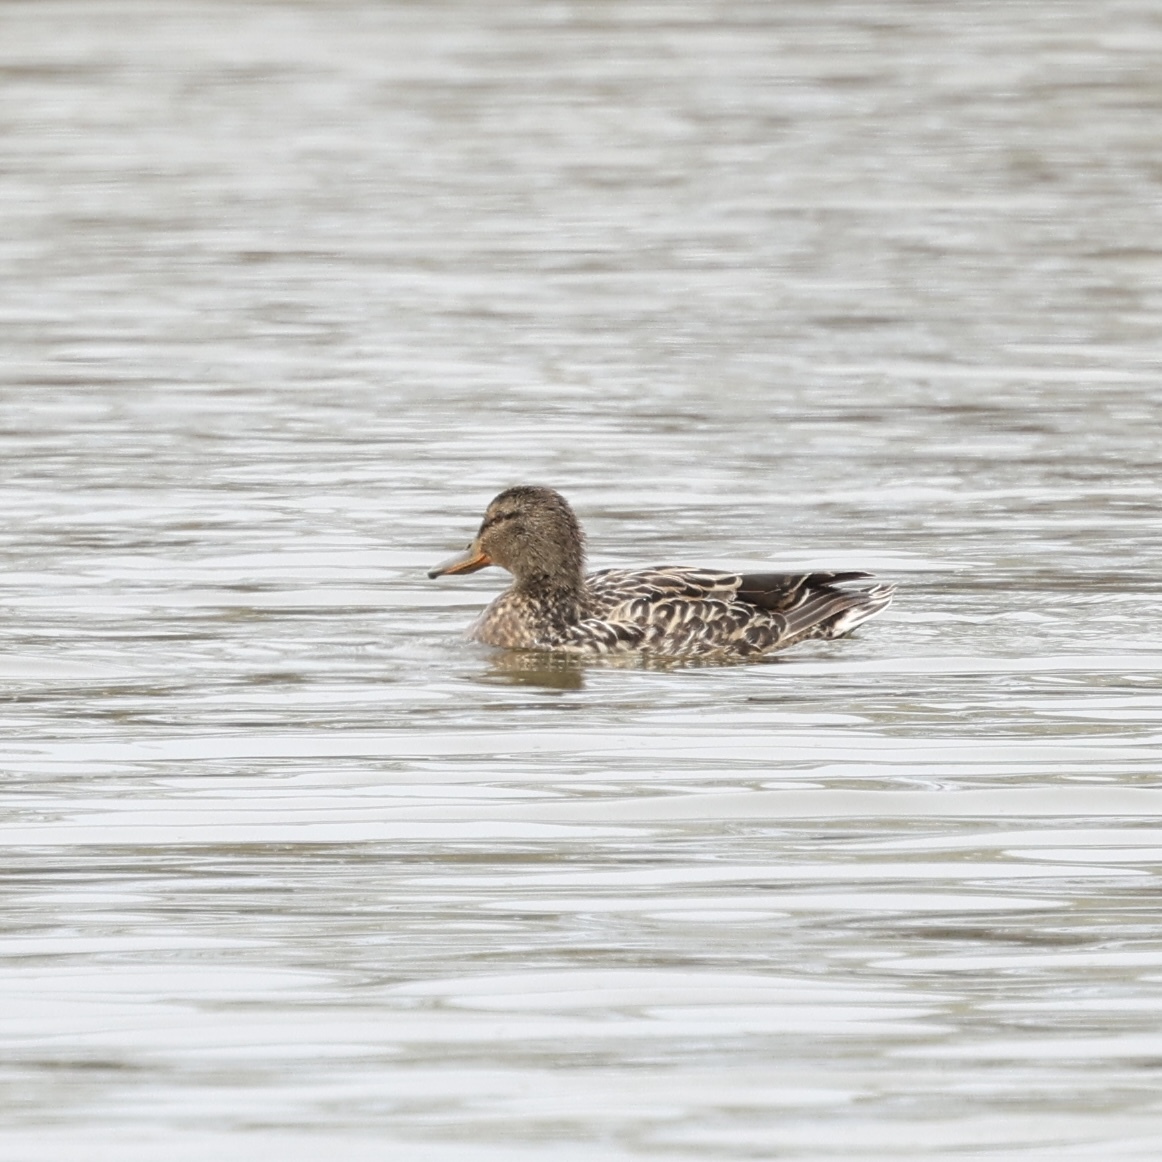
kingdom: Animalia
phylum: Chordata
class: Aves
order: Anseriformes
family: Anatidae
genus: Anas
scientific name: Anas platyrhynchos
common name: Mallard
